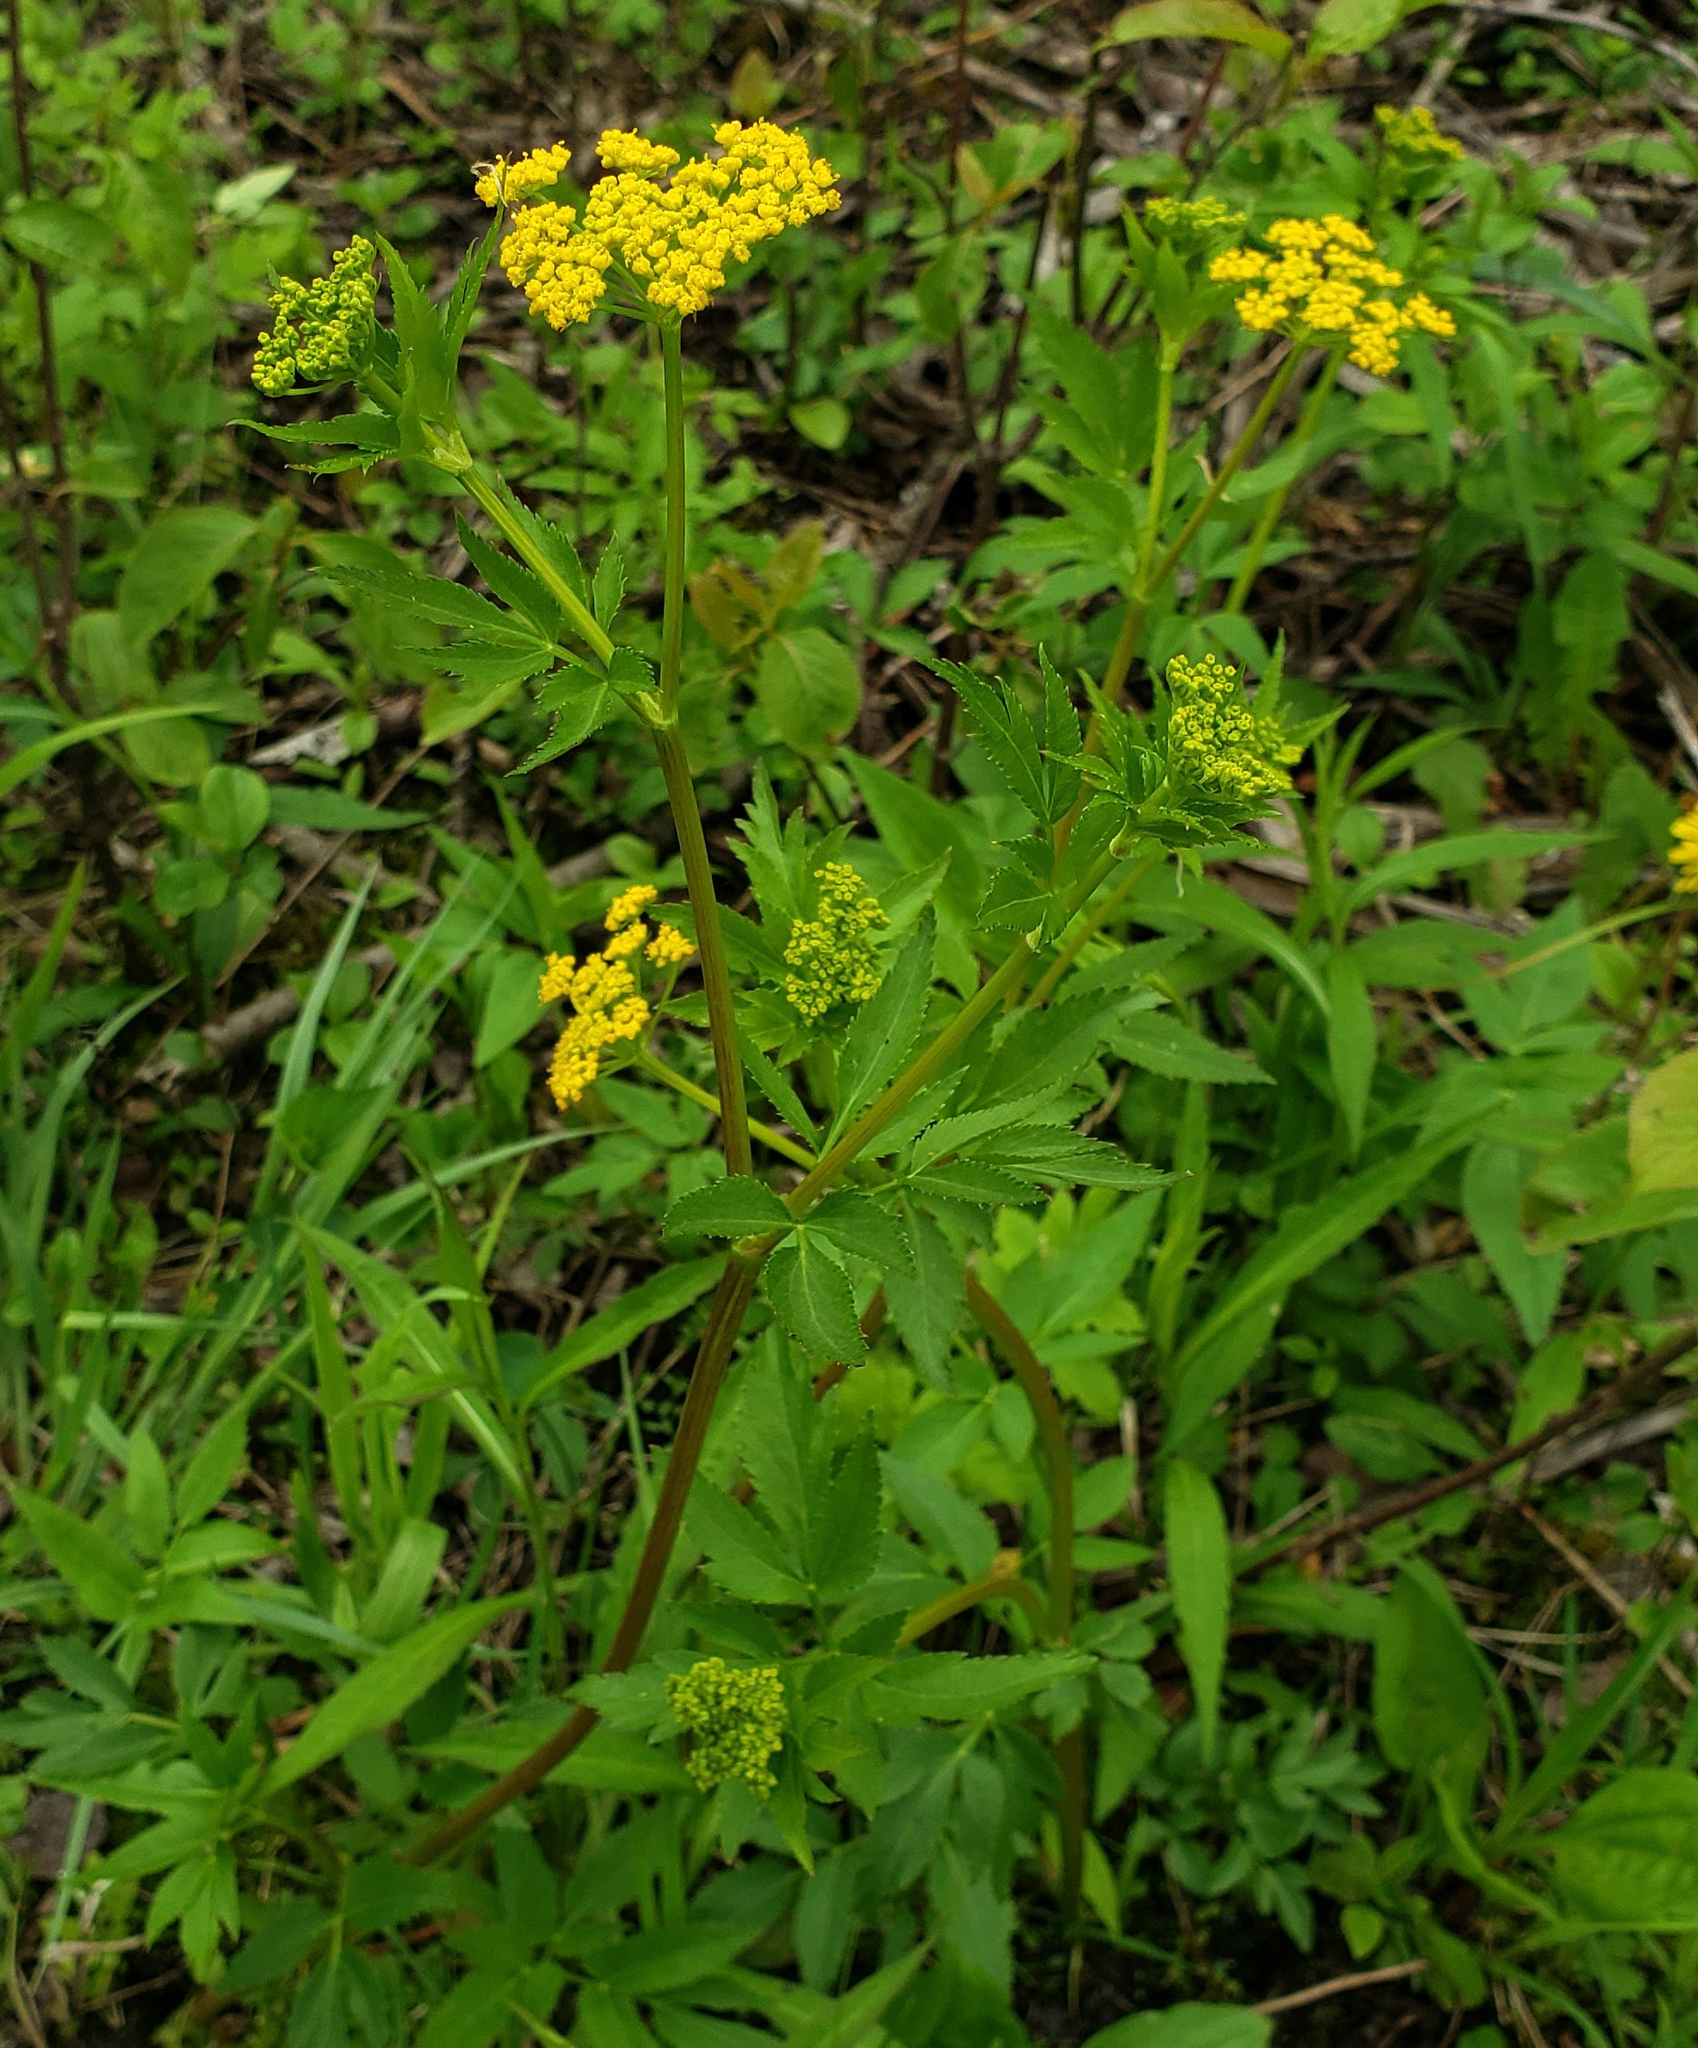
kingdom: Plantae
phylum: Tracheophyta
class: Magnoliopsida
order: Apiales
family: Apiaceae
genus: Zizia
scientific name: Zizia aurea
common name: Golden alexanders
